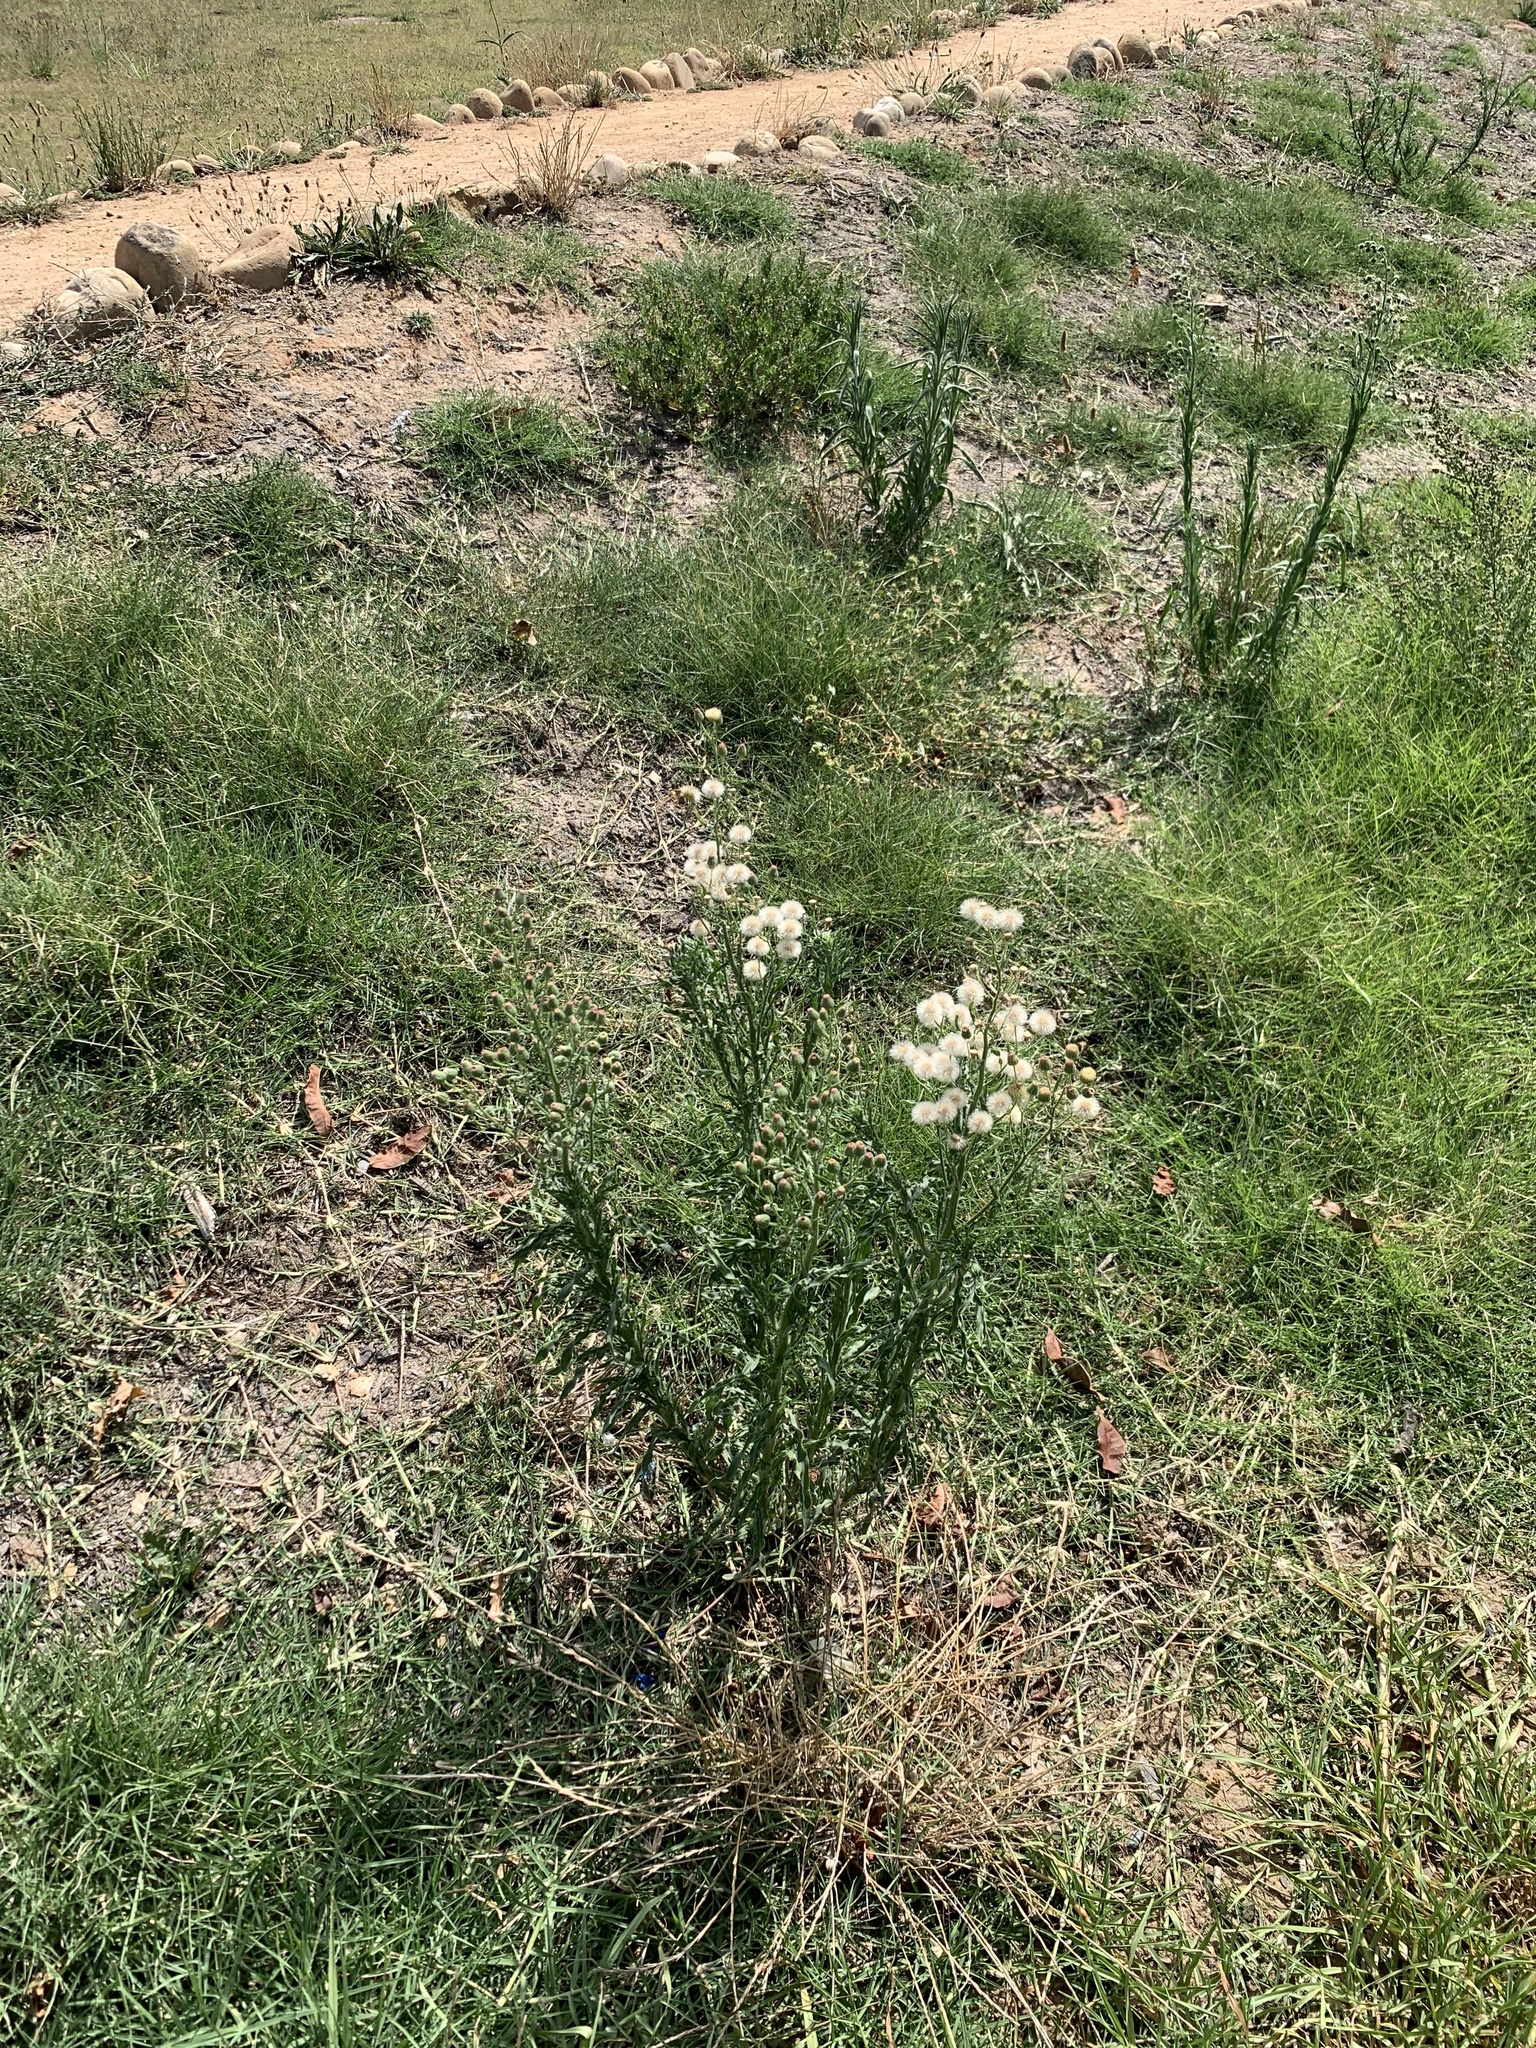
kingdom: Plantae
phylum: Tracheophyta
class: Magnoliopsida
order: Asterales
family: Asteraceae
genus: Erigeron
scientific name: Erigeron bonariensis
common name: Argentine fleabane
